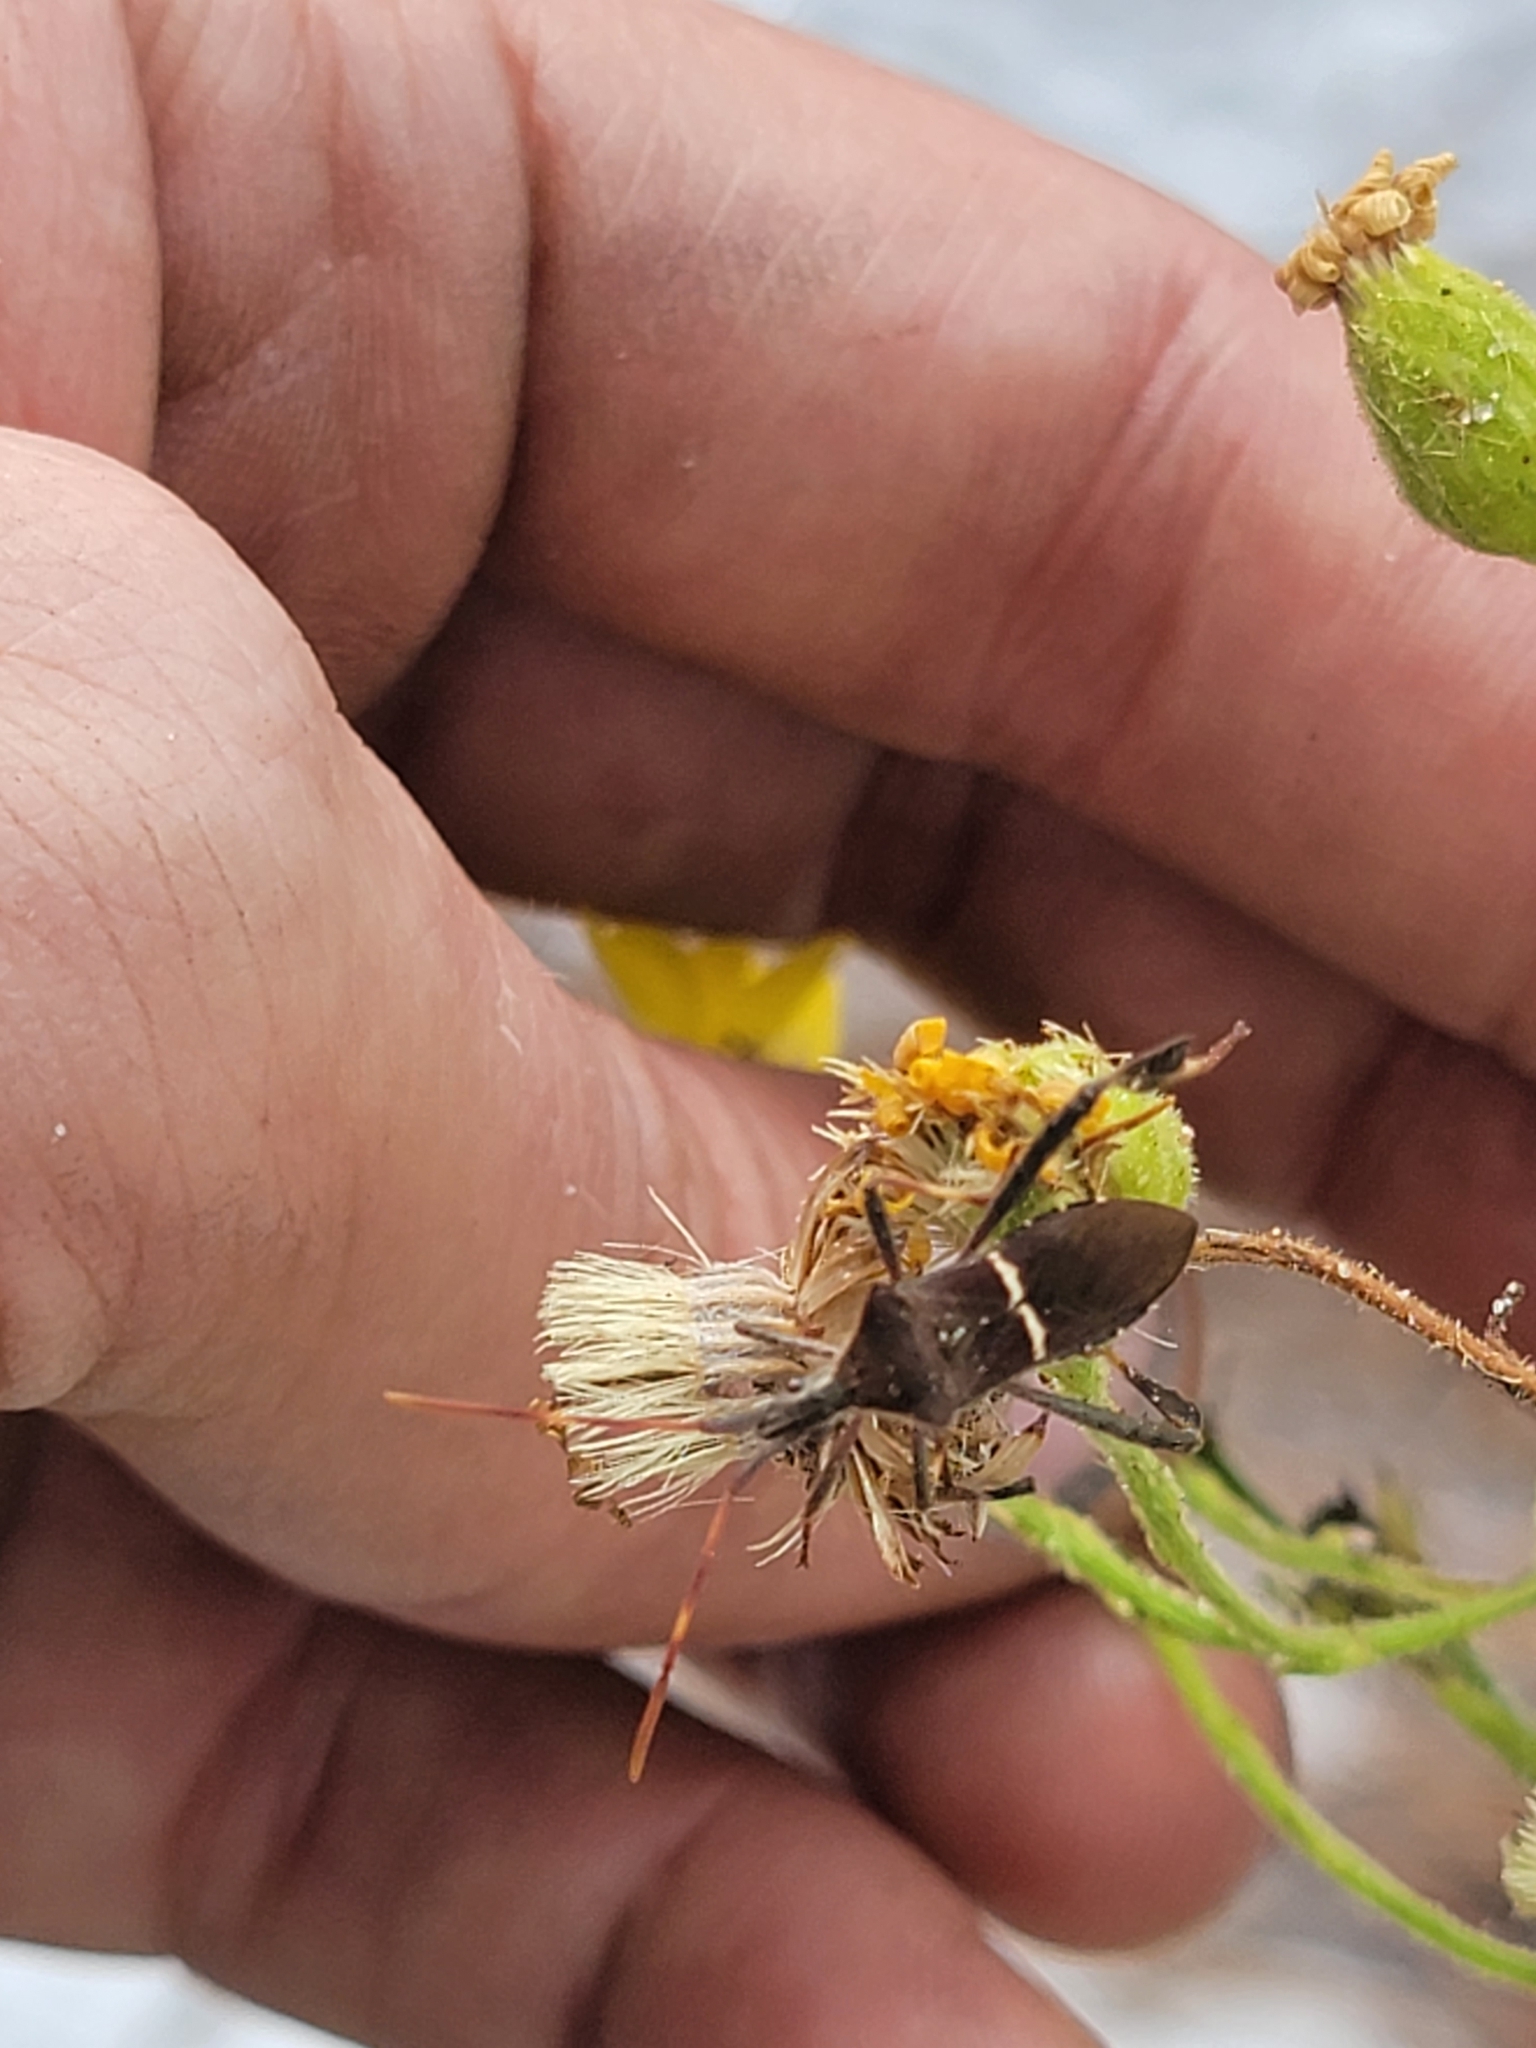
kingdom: Animalia
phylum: Arthropoda
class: Insecta
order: Hemiptera
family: Coreidae
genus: Leptoglossus
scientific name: Leptoglossus phyllopus
